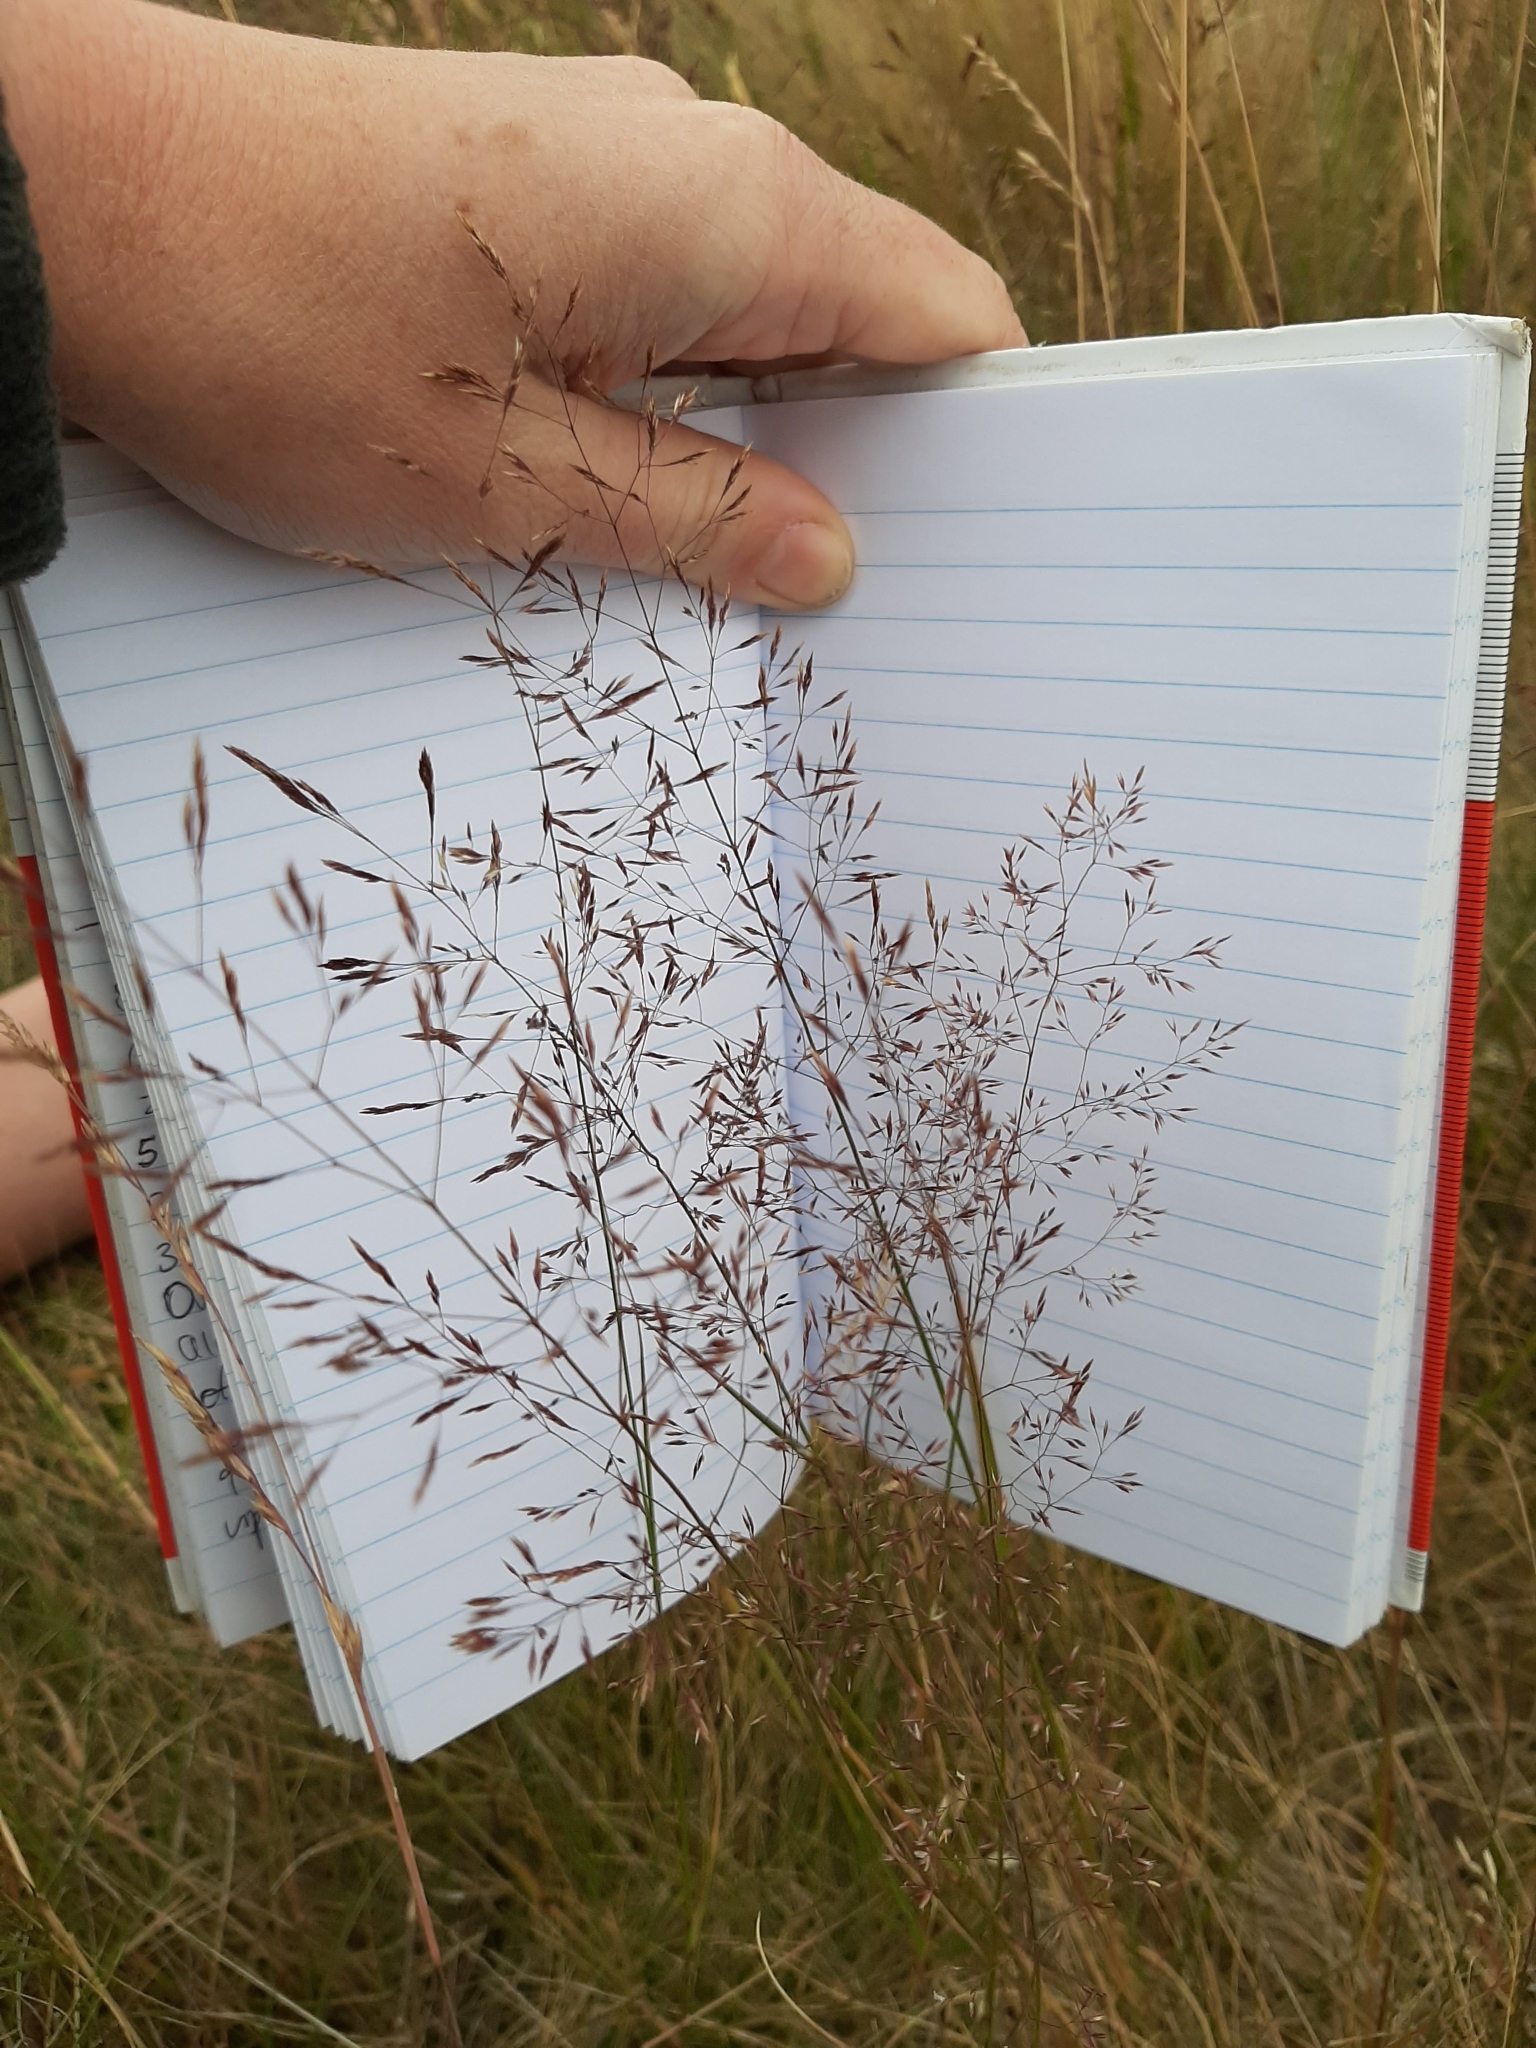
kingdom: Plantae
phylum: Tracheophyta
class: Liliopsida
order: Poales
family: Poaceae
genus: Agrostis
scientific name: Agrostis capillaris
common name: Colonial bentgrass
